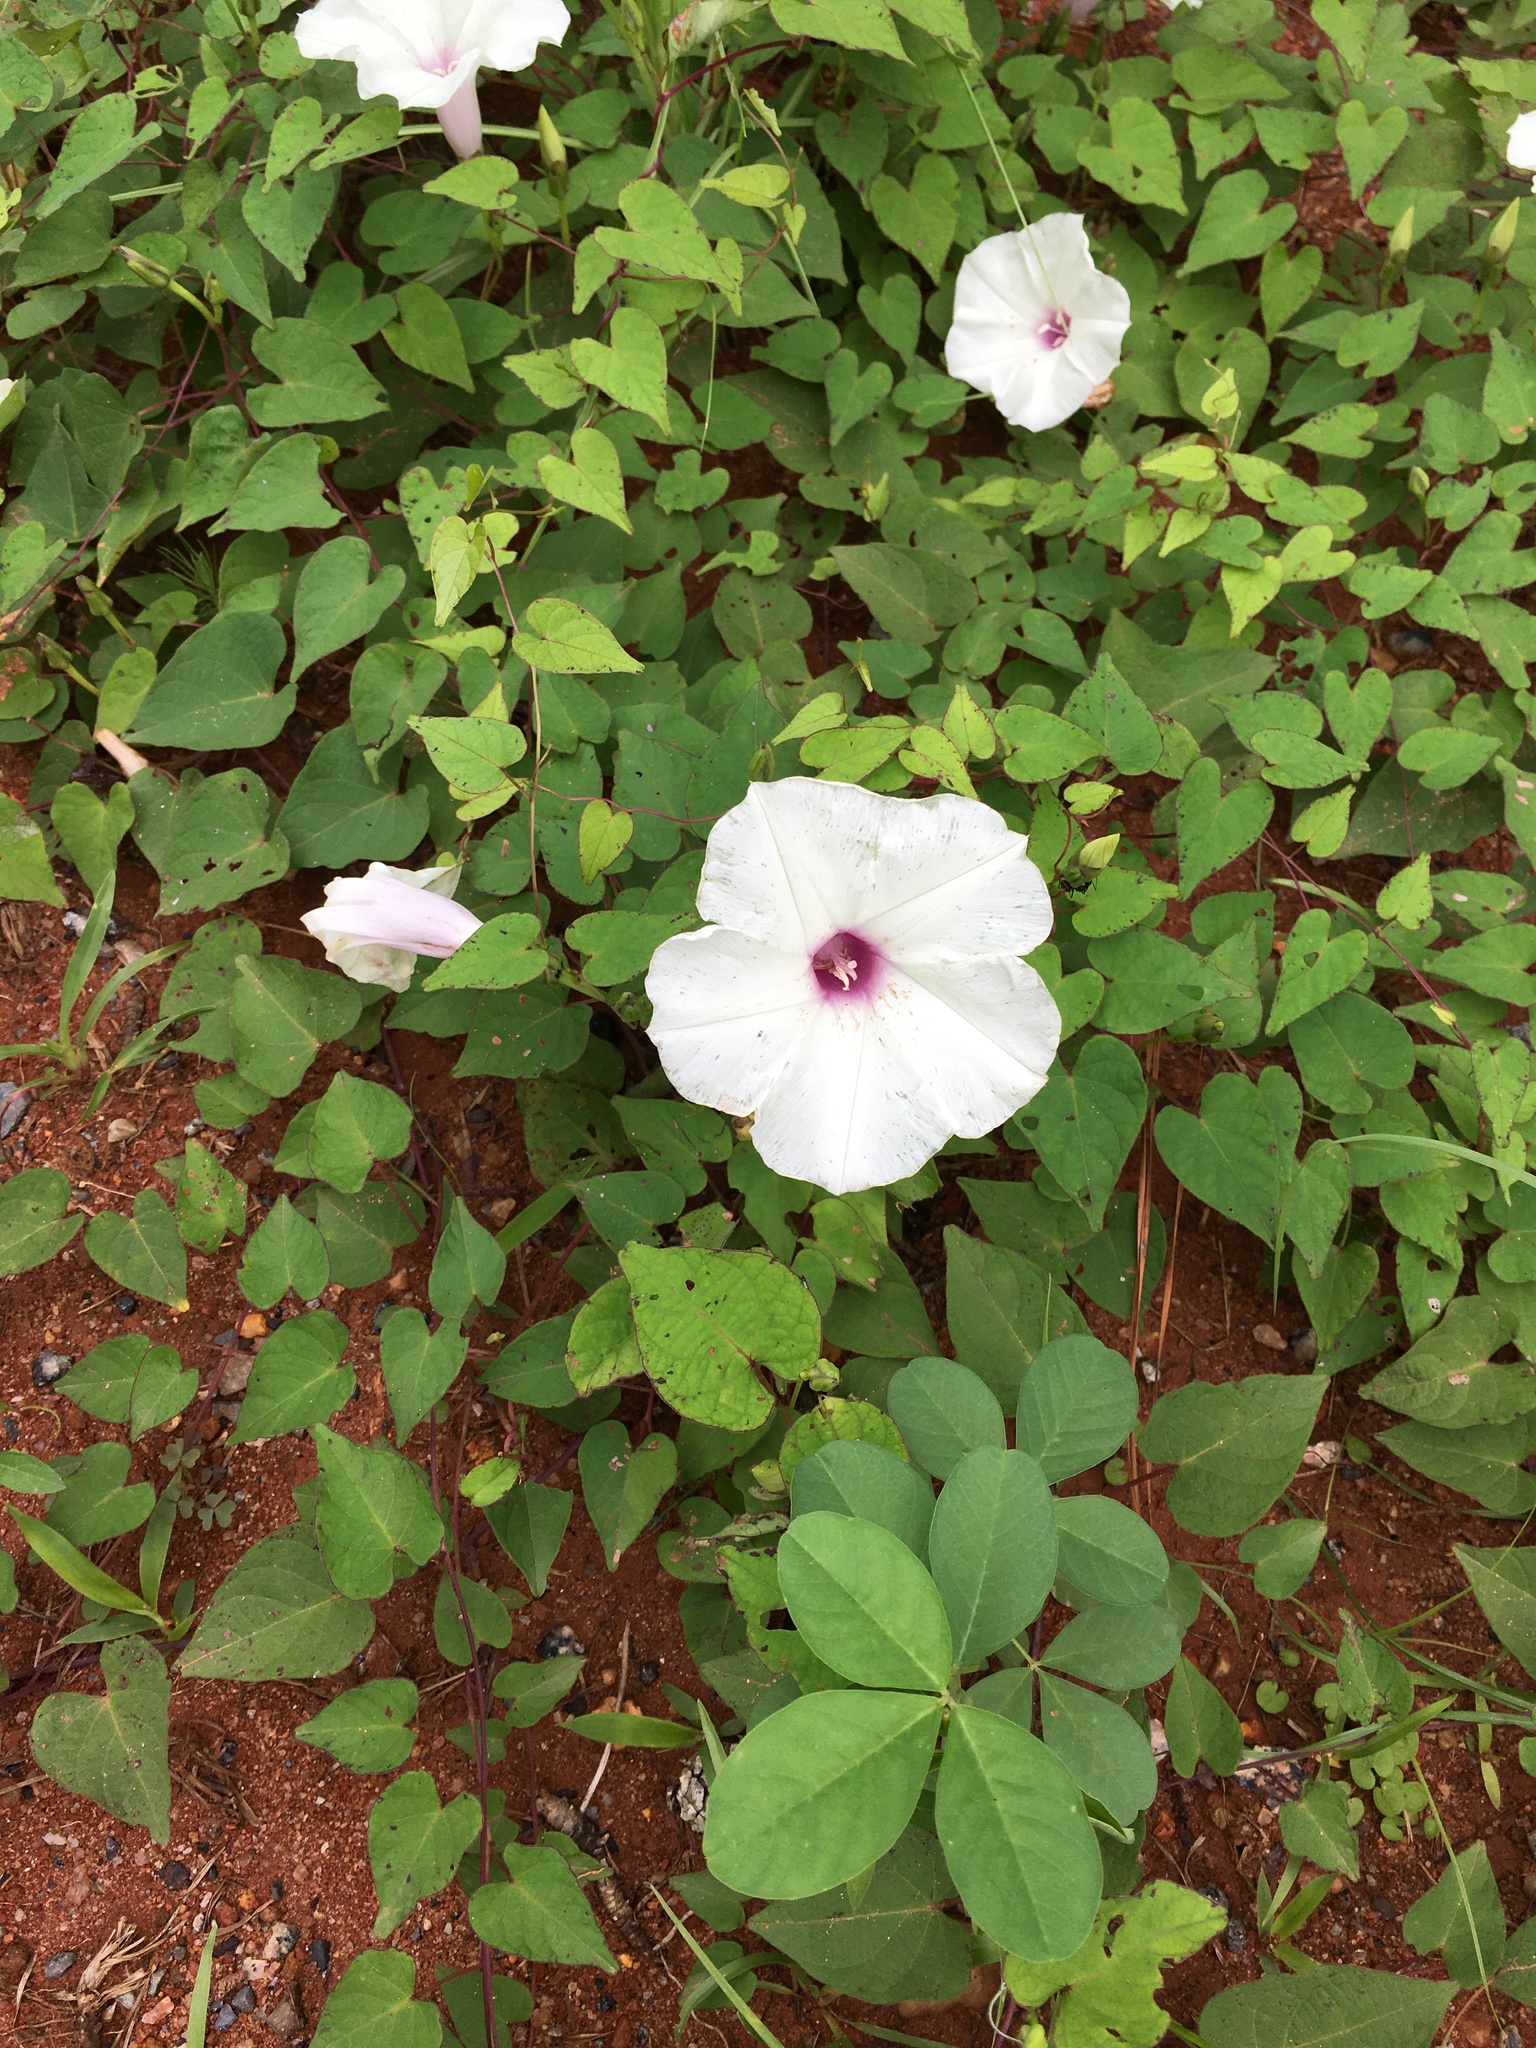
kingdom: Plantae
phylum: Tracheophyta
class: Magnoliopsida
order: Solanales
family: Convolvulaceae
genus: Ipomoea
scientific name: Ipomoea pandurata
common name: Man-of-the-earth
